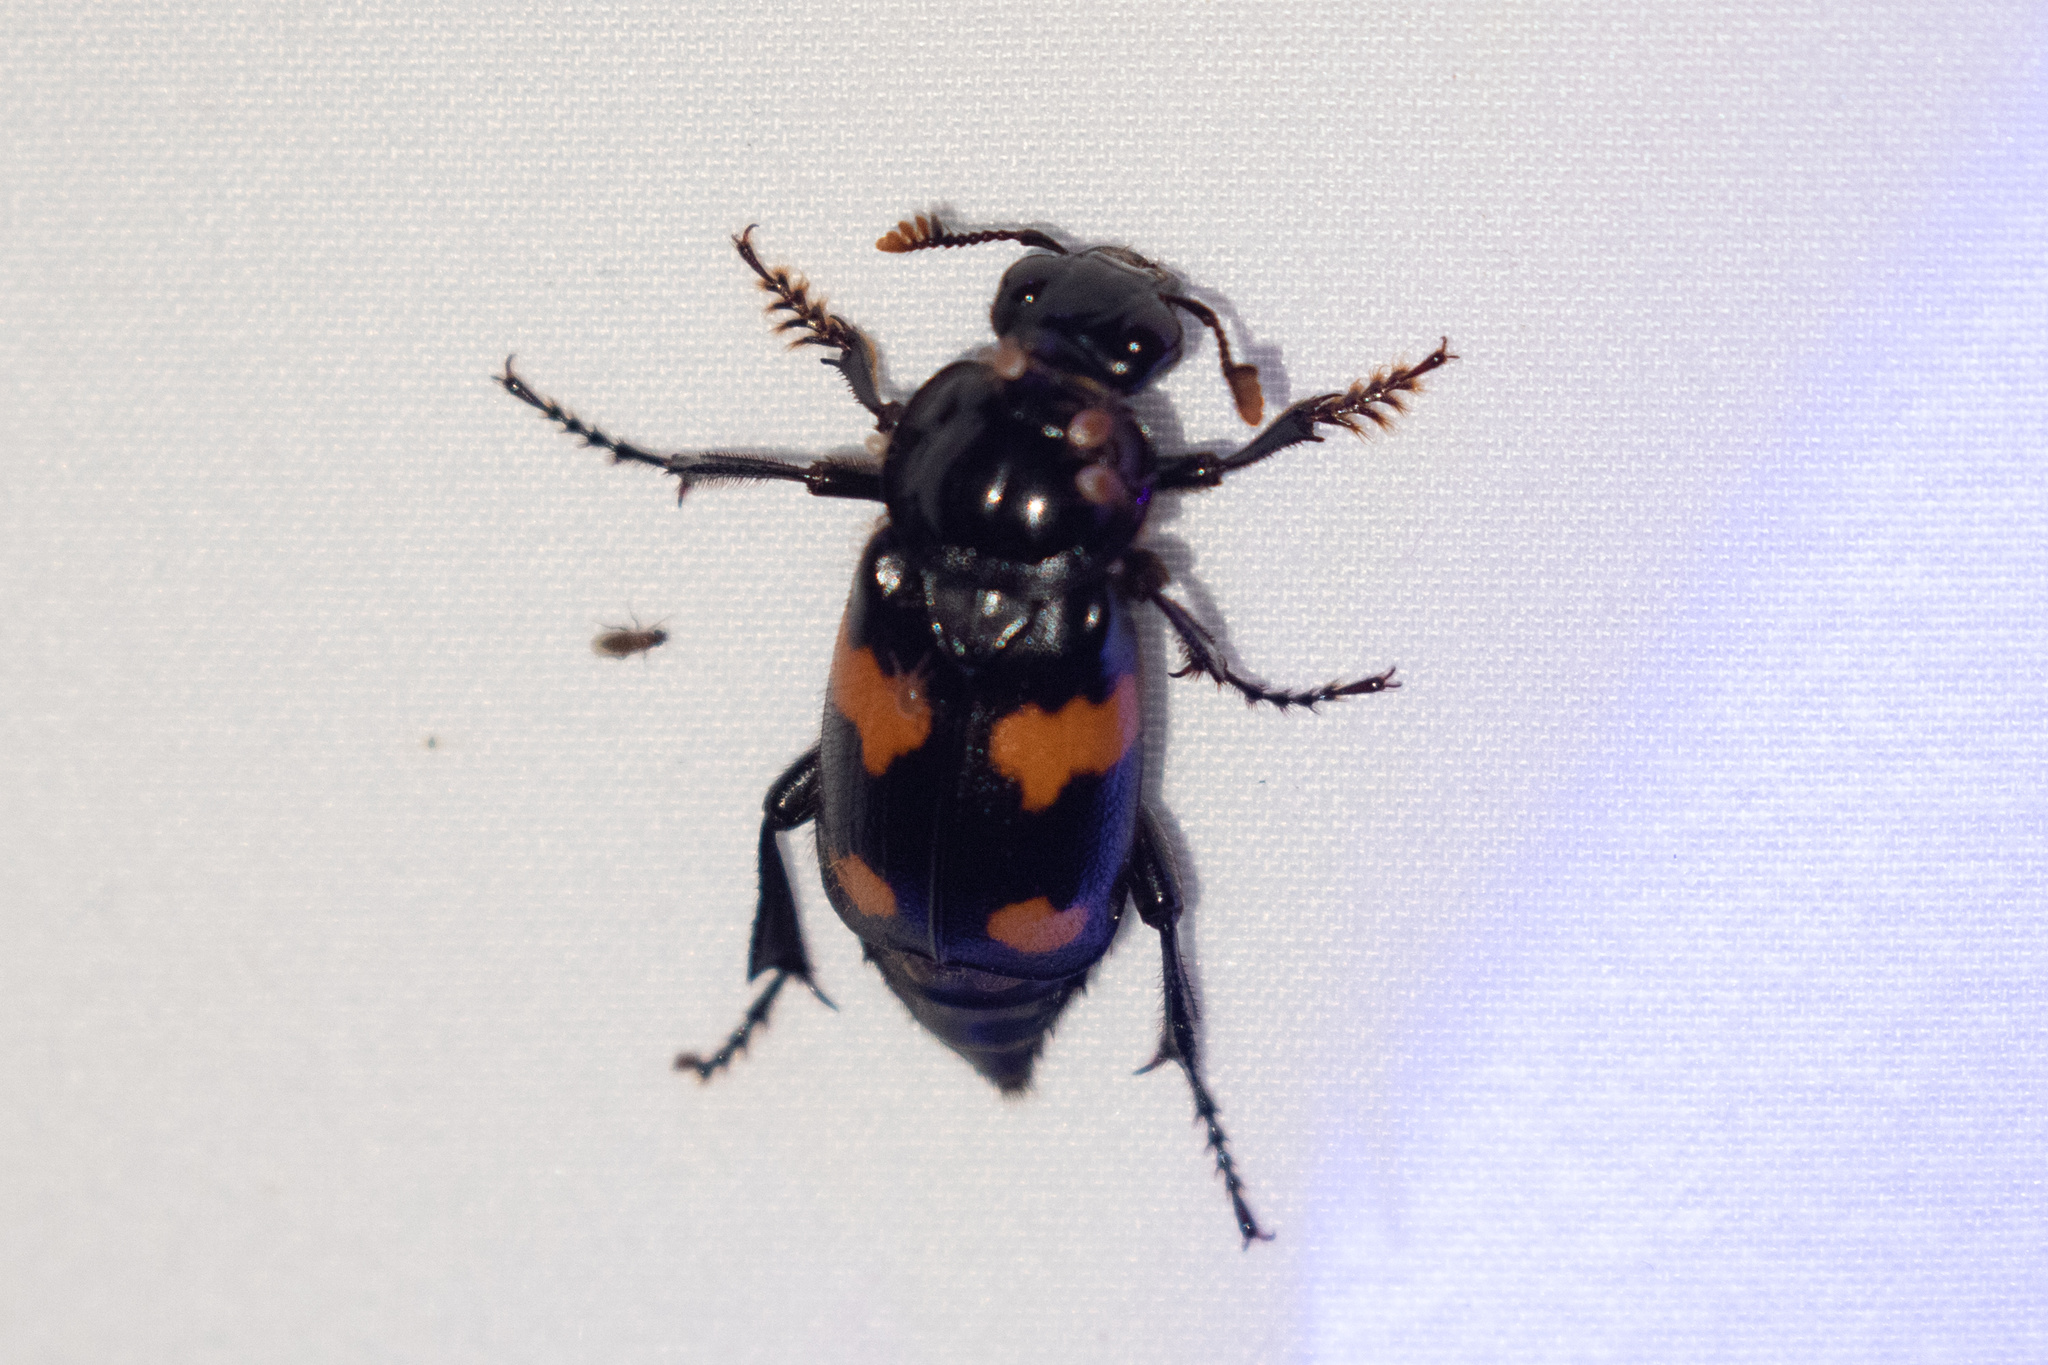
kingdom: Animalia
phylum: Arthropoda
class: Insecta
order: Coleoptera
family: Staphylinidae
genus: Nicrophorus
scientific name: Nicrophorus orbicollis
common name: Roundneck sexton beetle
